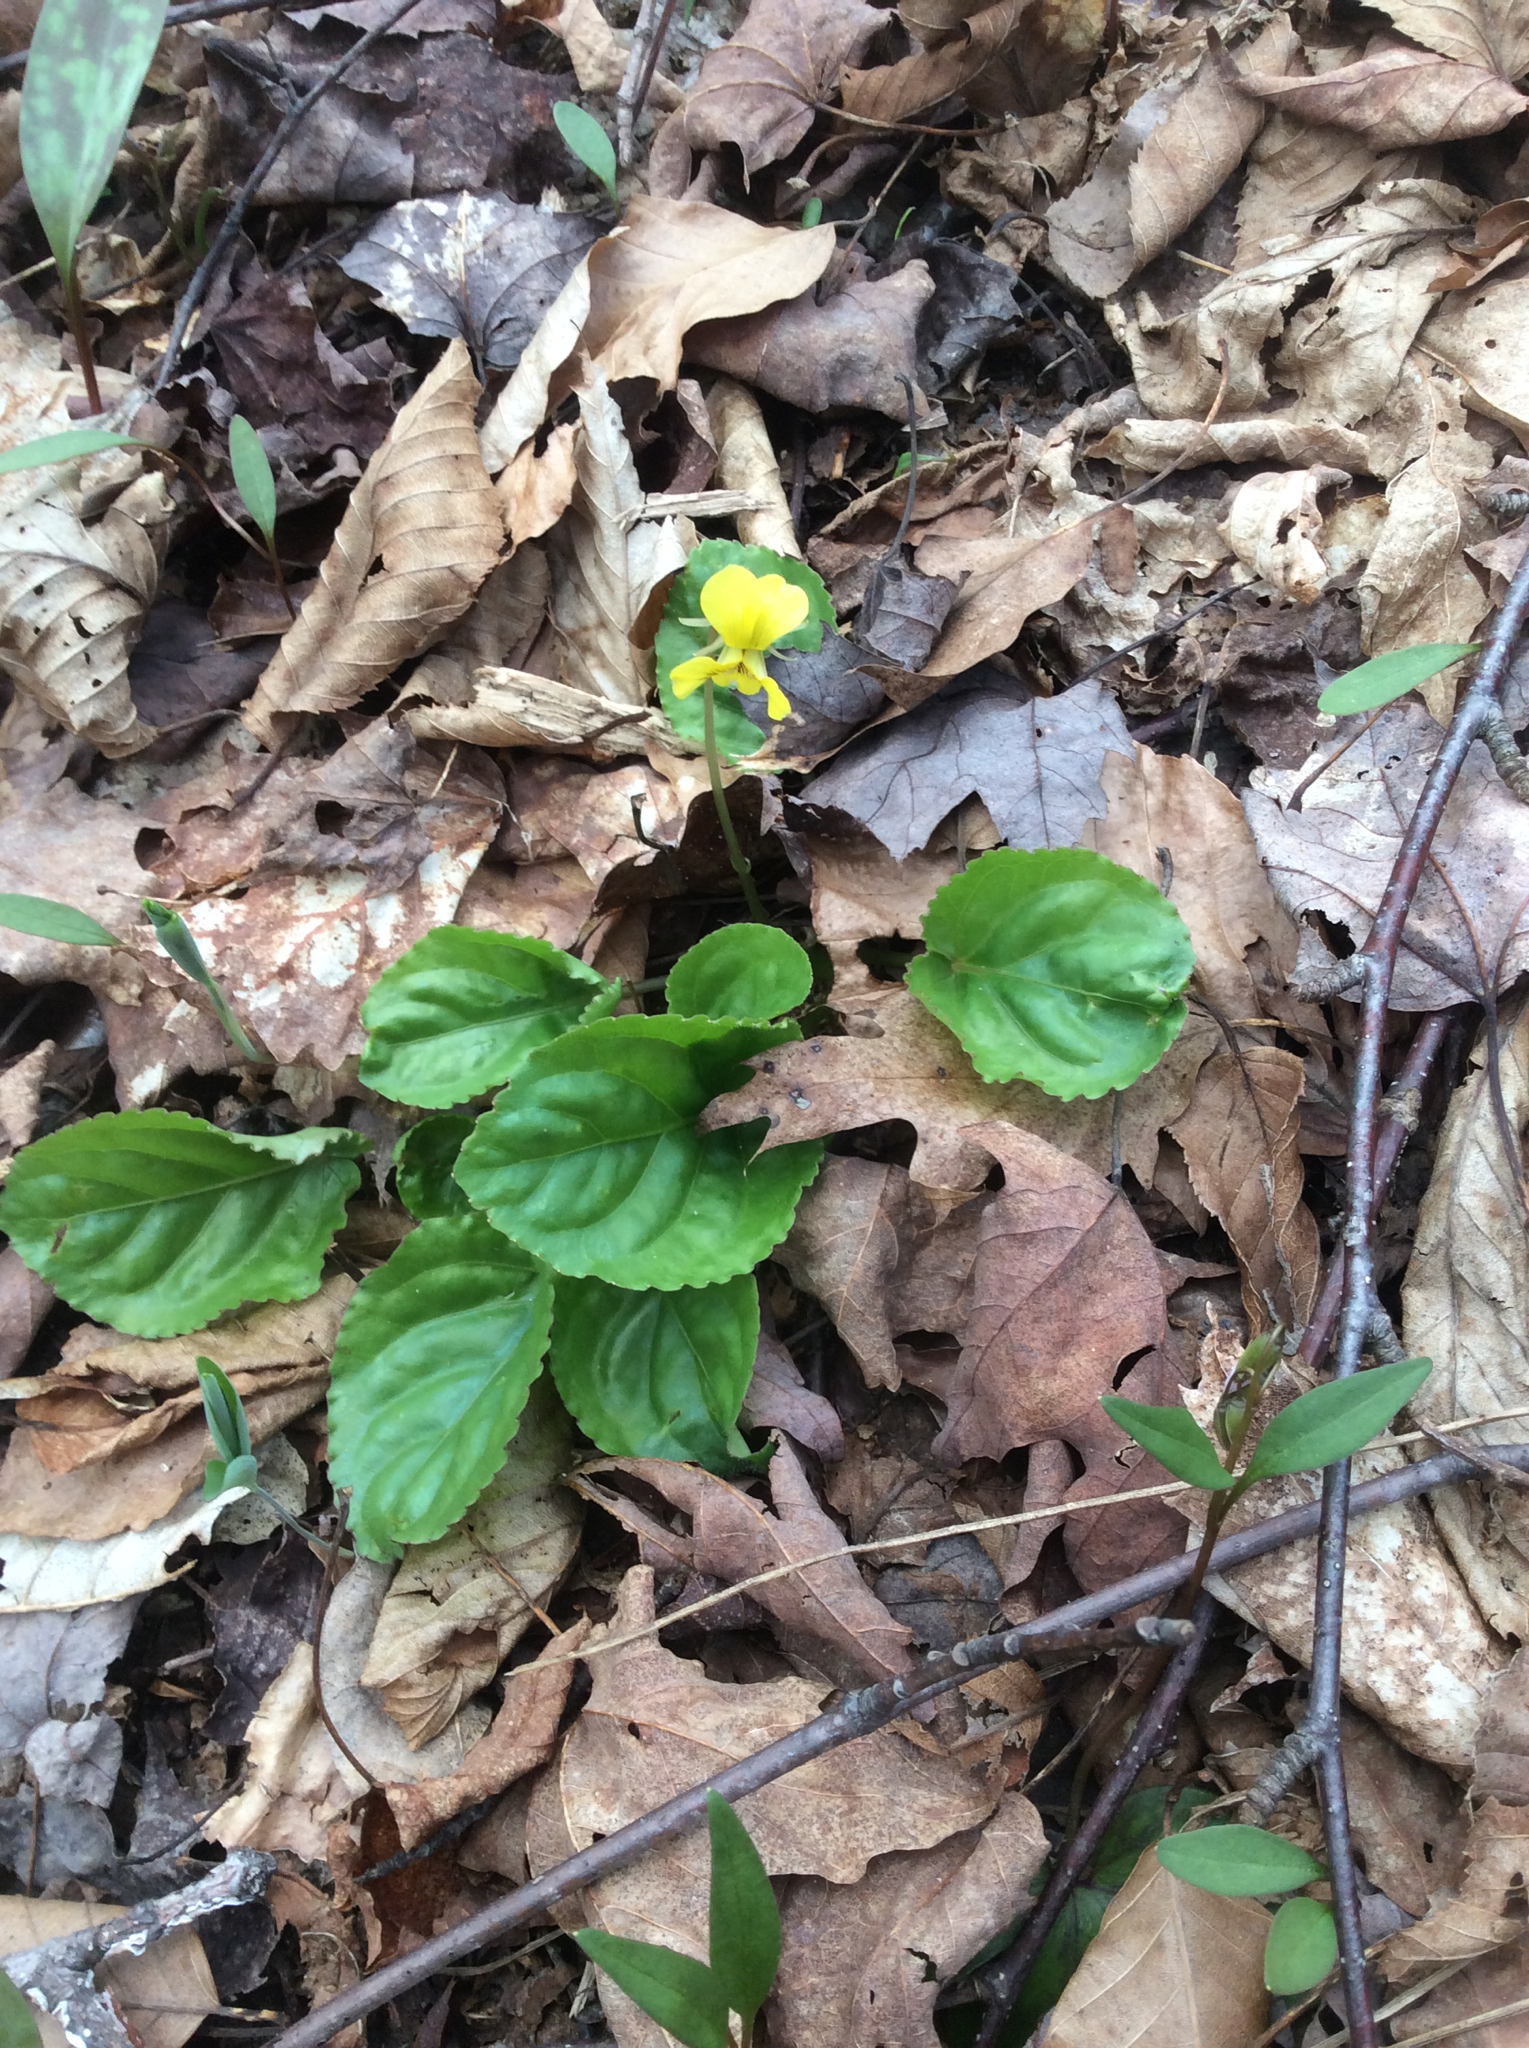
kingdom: Plantae
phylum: Tracheophyta
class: Magnoliopsida
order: Malpighiales
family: Violaceae
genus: Viola
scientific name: Viola rotundifolia
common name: Early yellow violet
